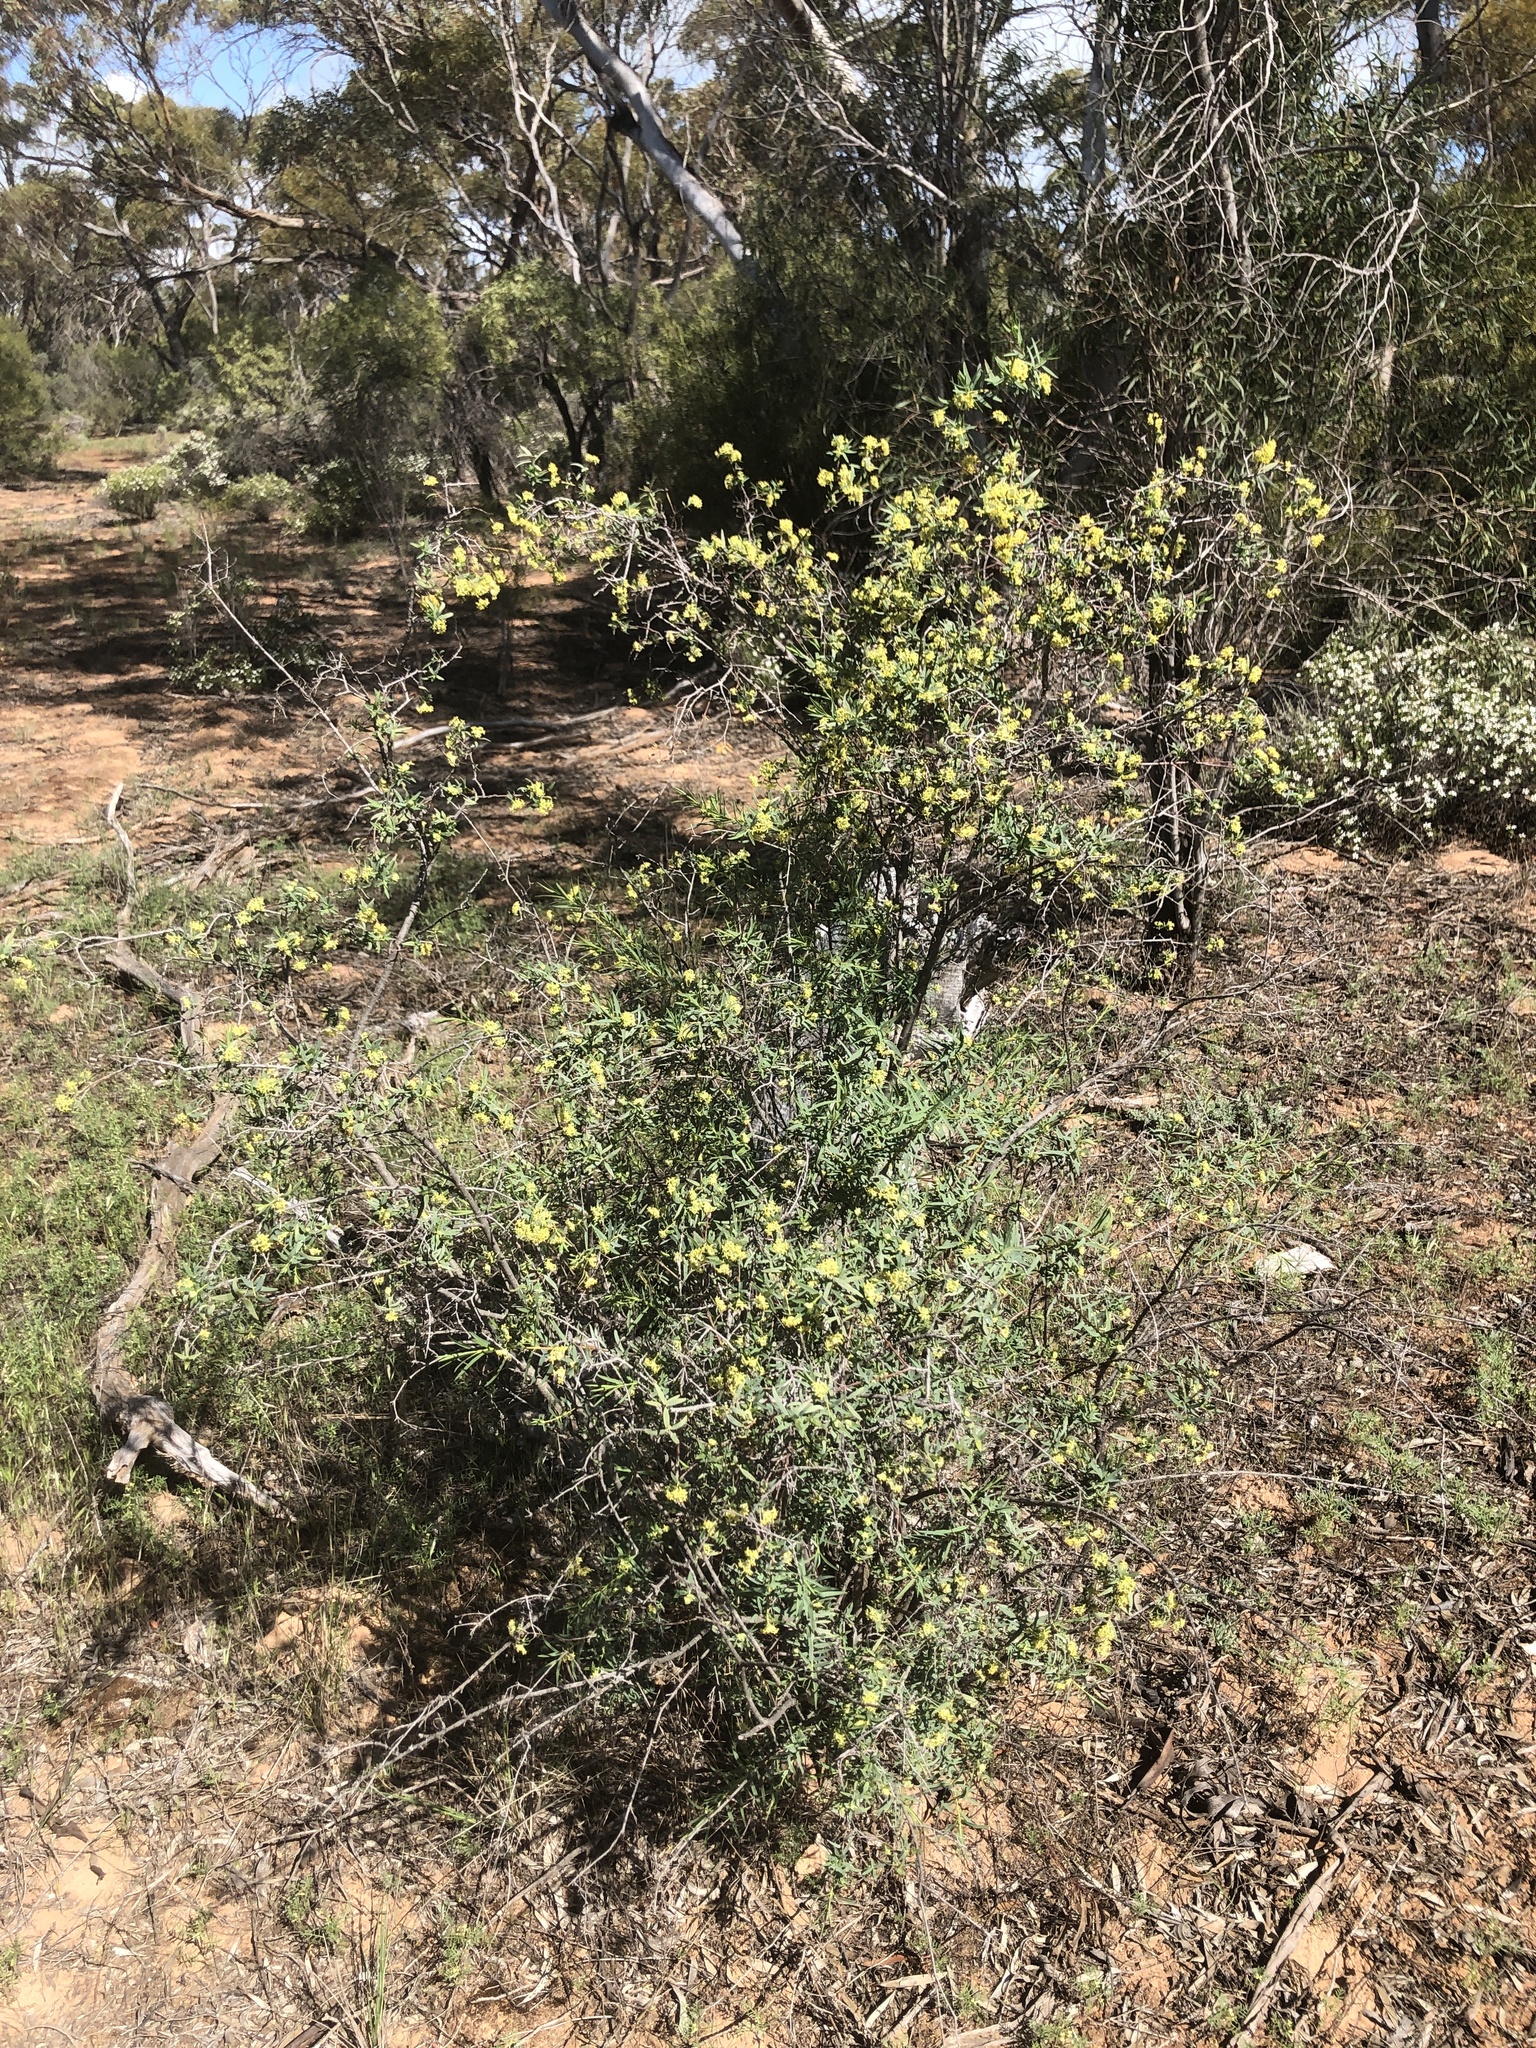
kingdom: Plantae
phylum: Tracheophyta
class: Magnoliopsida
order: Malvales
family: Thymelaeaceae
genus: Pimelea
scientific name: Pimelea microcephala
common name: Mallee riceflower
